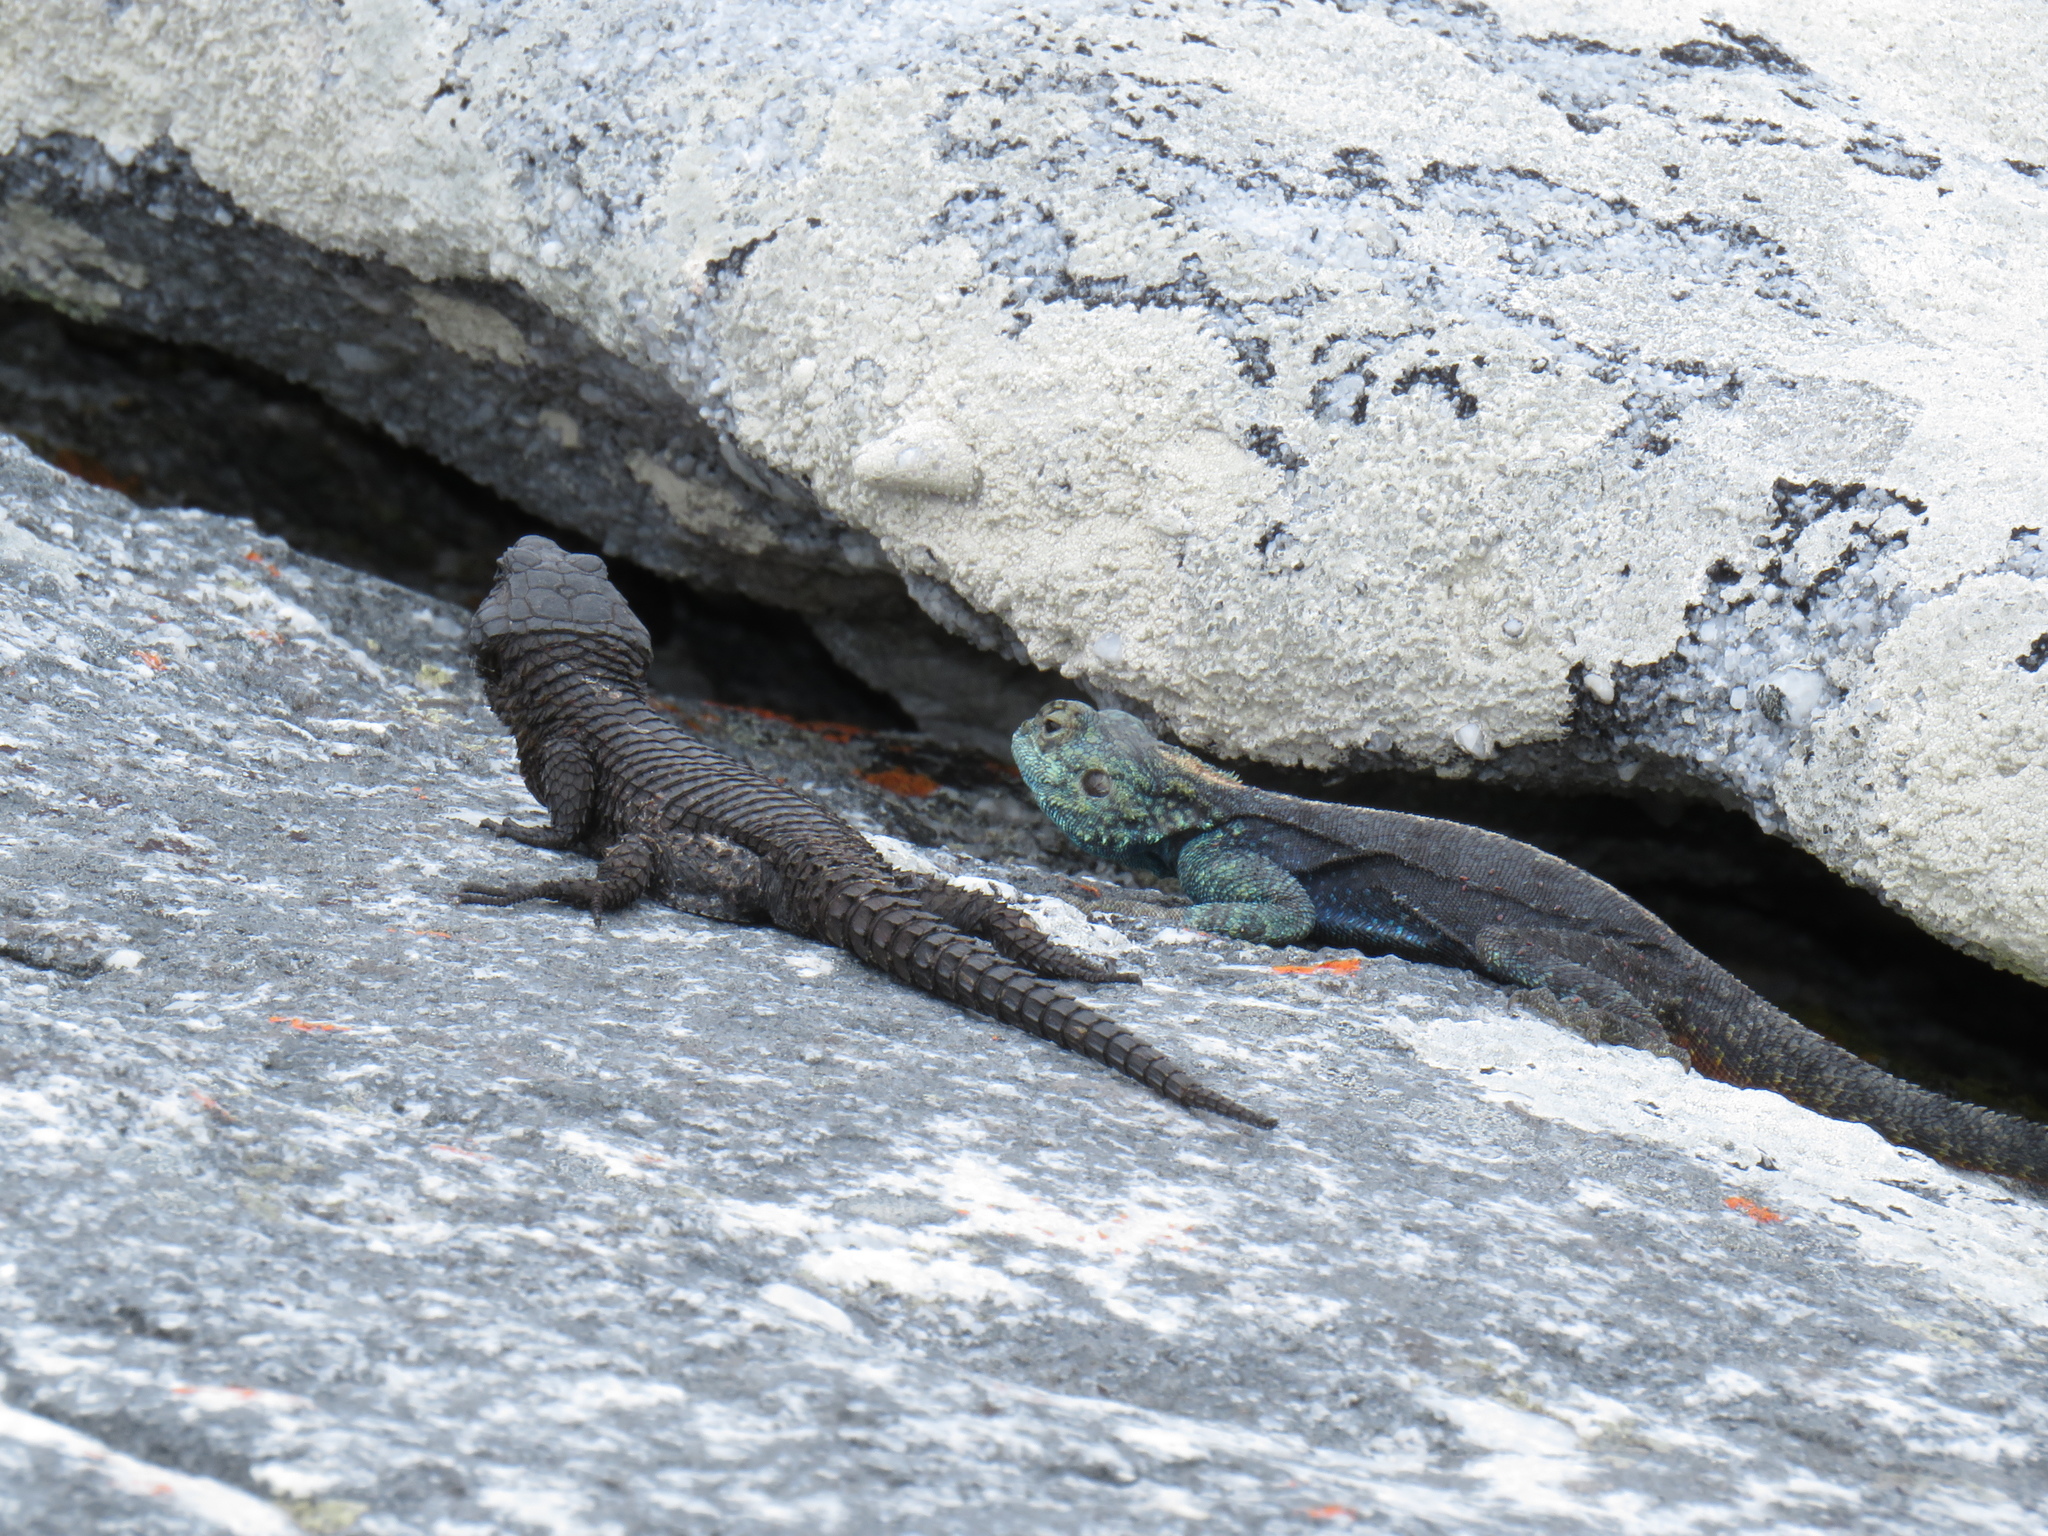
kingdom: Animalia
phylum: Chordata
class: Squamata
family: Cordylidae
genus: Cordylus
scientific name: Cordylus niger
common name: Black girdled lizard
